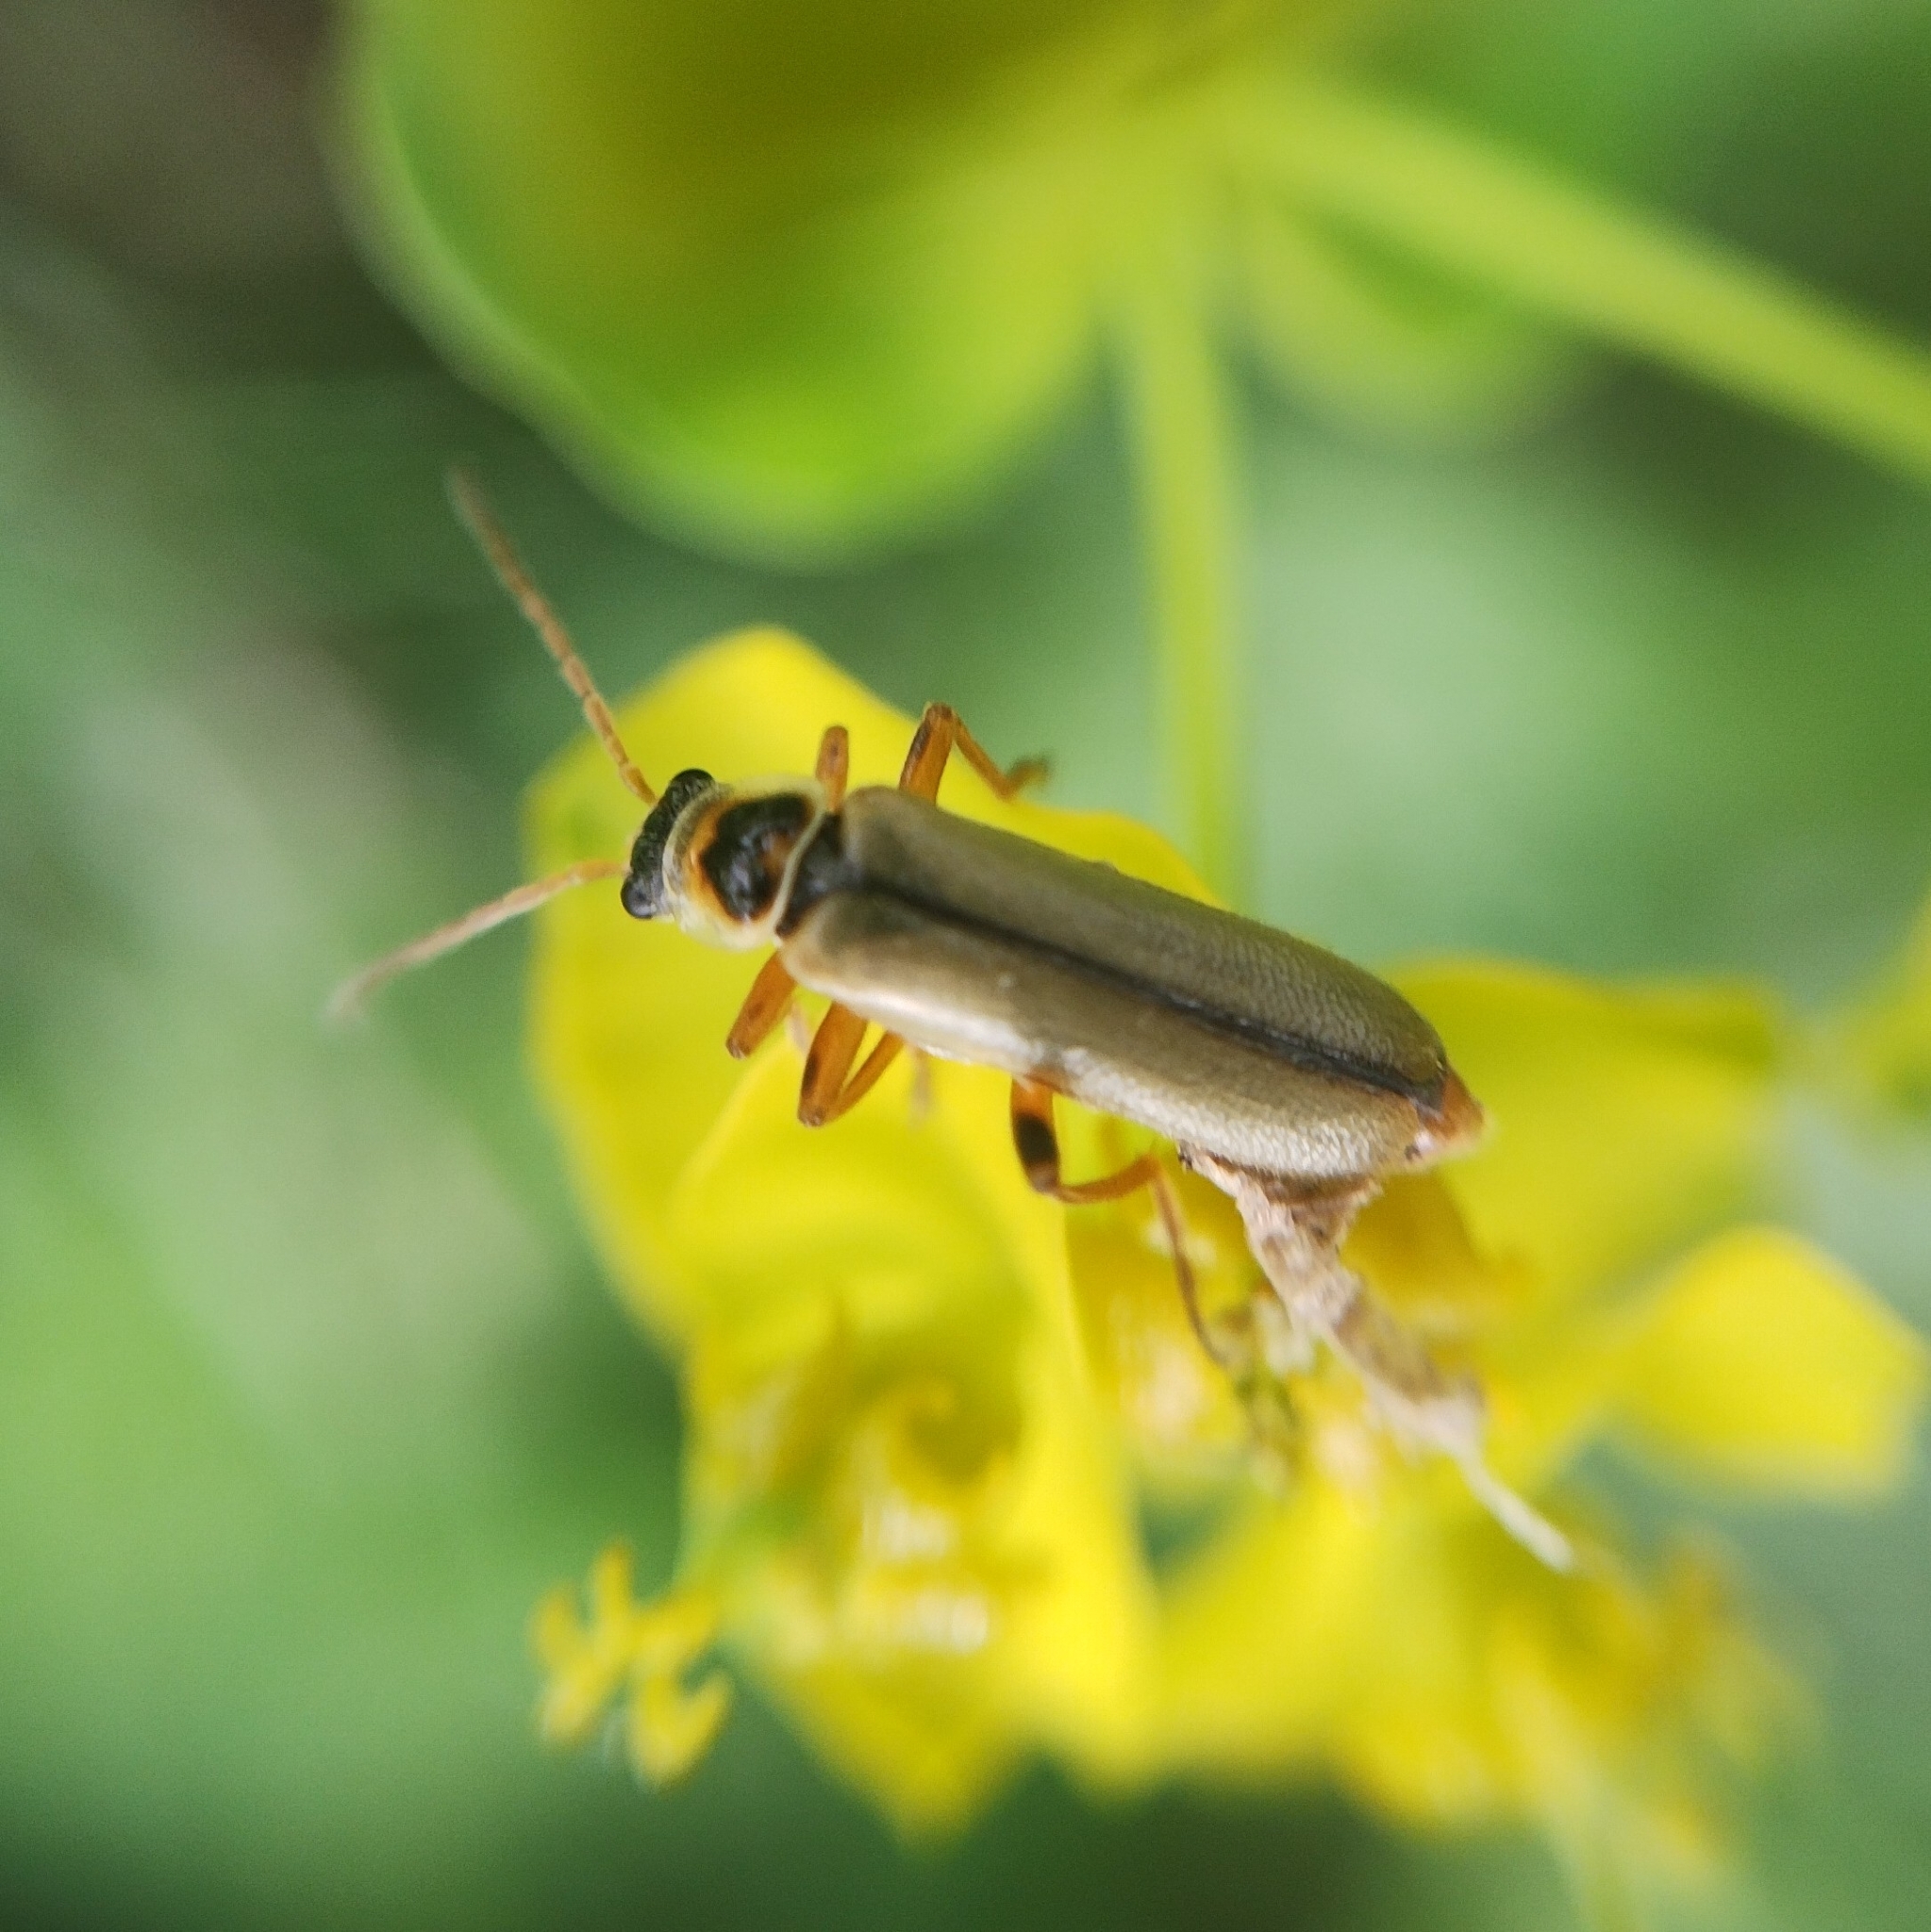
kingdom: Animalia
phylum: Arthropoda
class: Insecta
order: Coleoptera
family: Cantharidae
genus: Metacantharis
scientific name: Metacantharis clypeata
